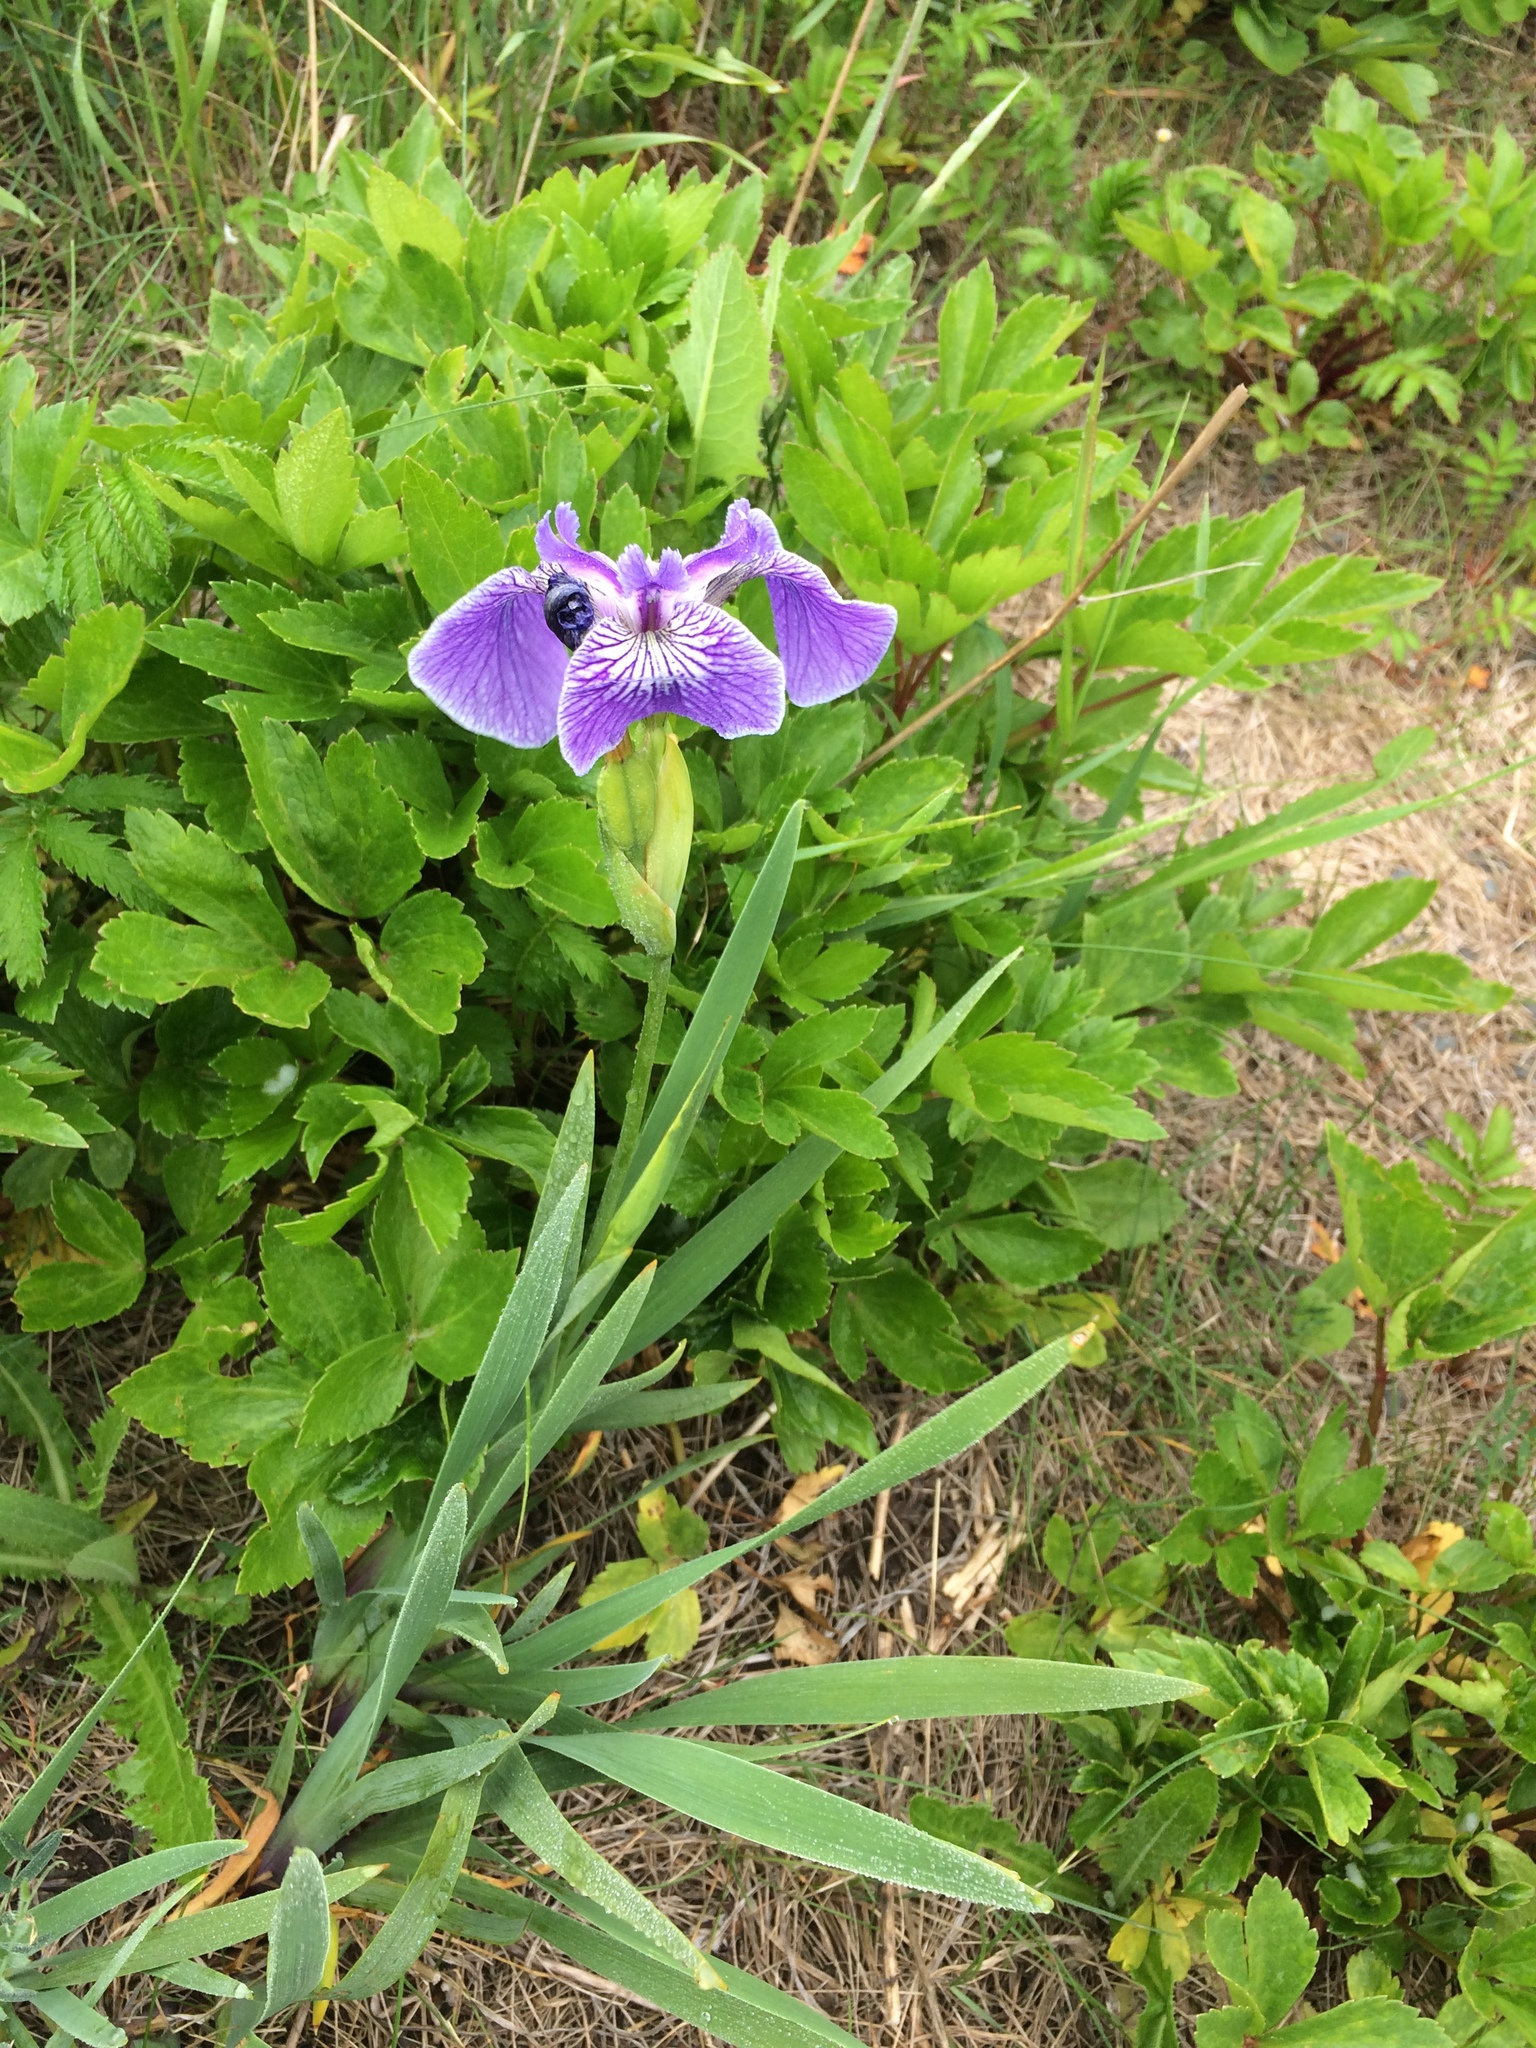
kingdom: Plantae
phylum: Tracheophyta
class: Liliopsida
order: Asparagales
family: Iridaceae
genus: Iris
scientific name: Iris hookeri
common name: Canada beach-head iris
